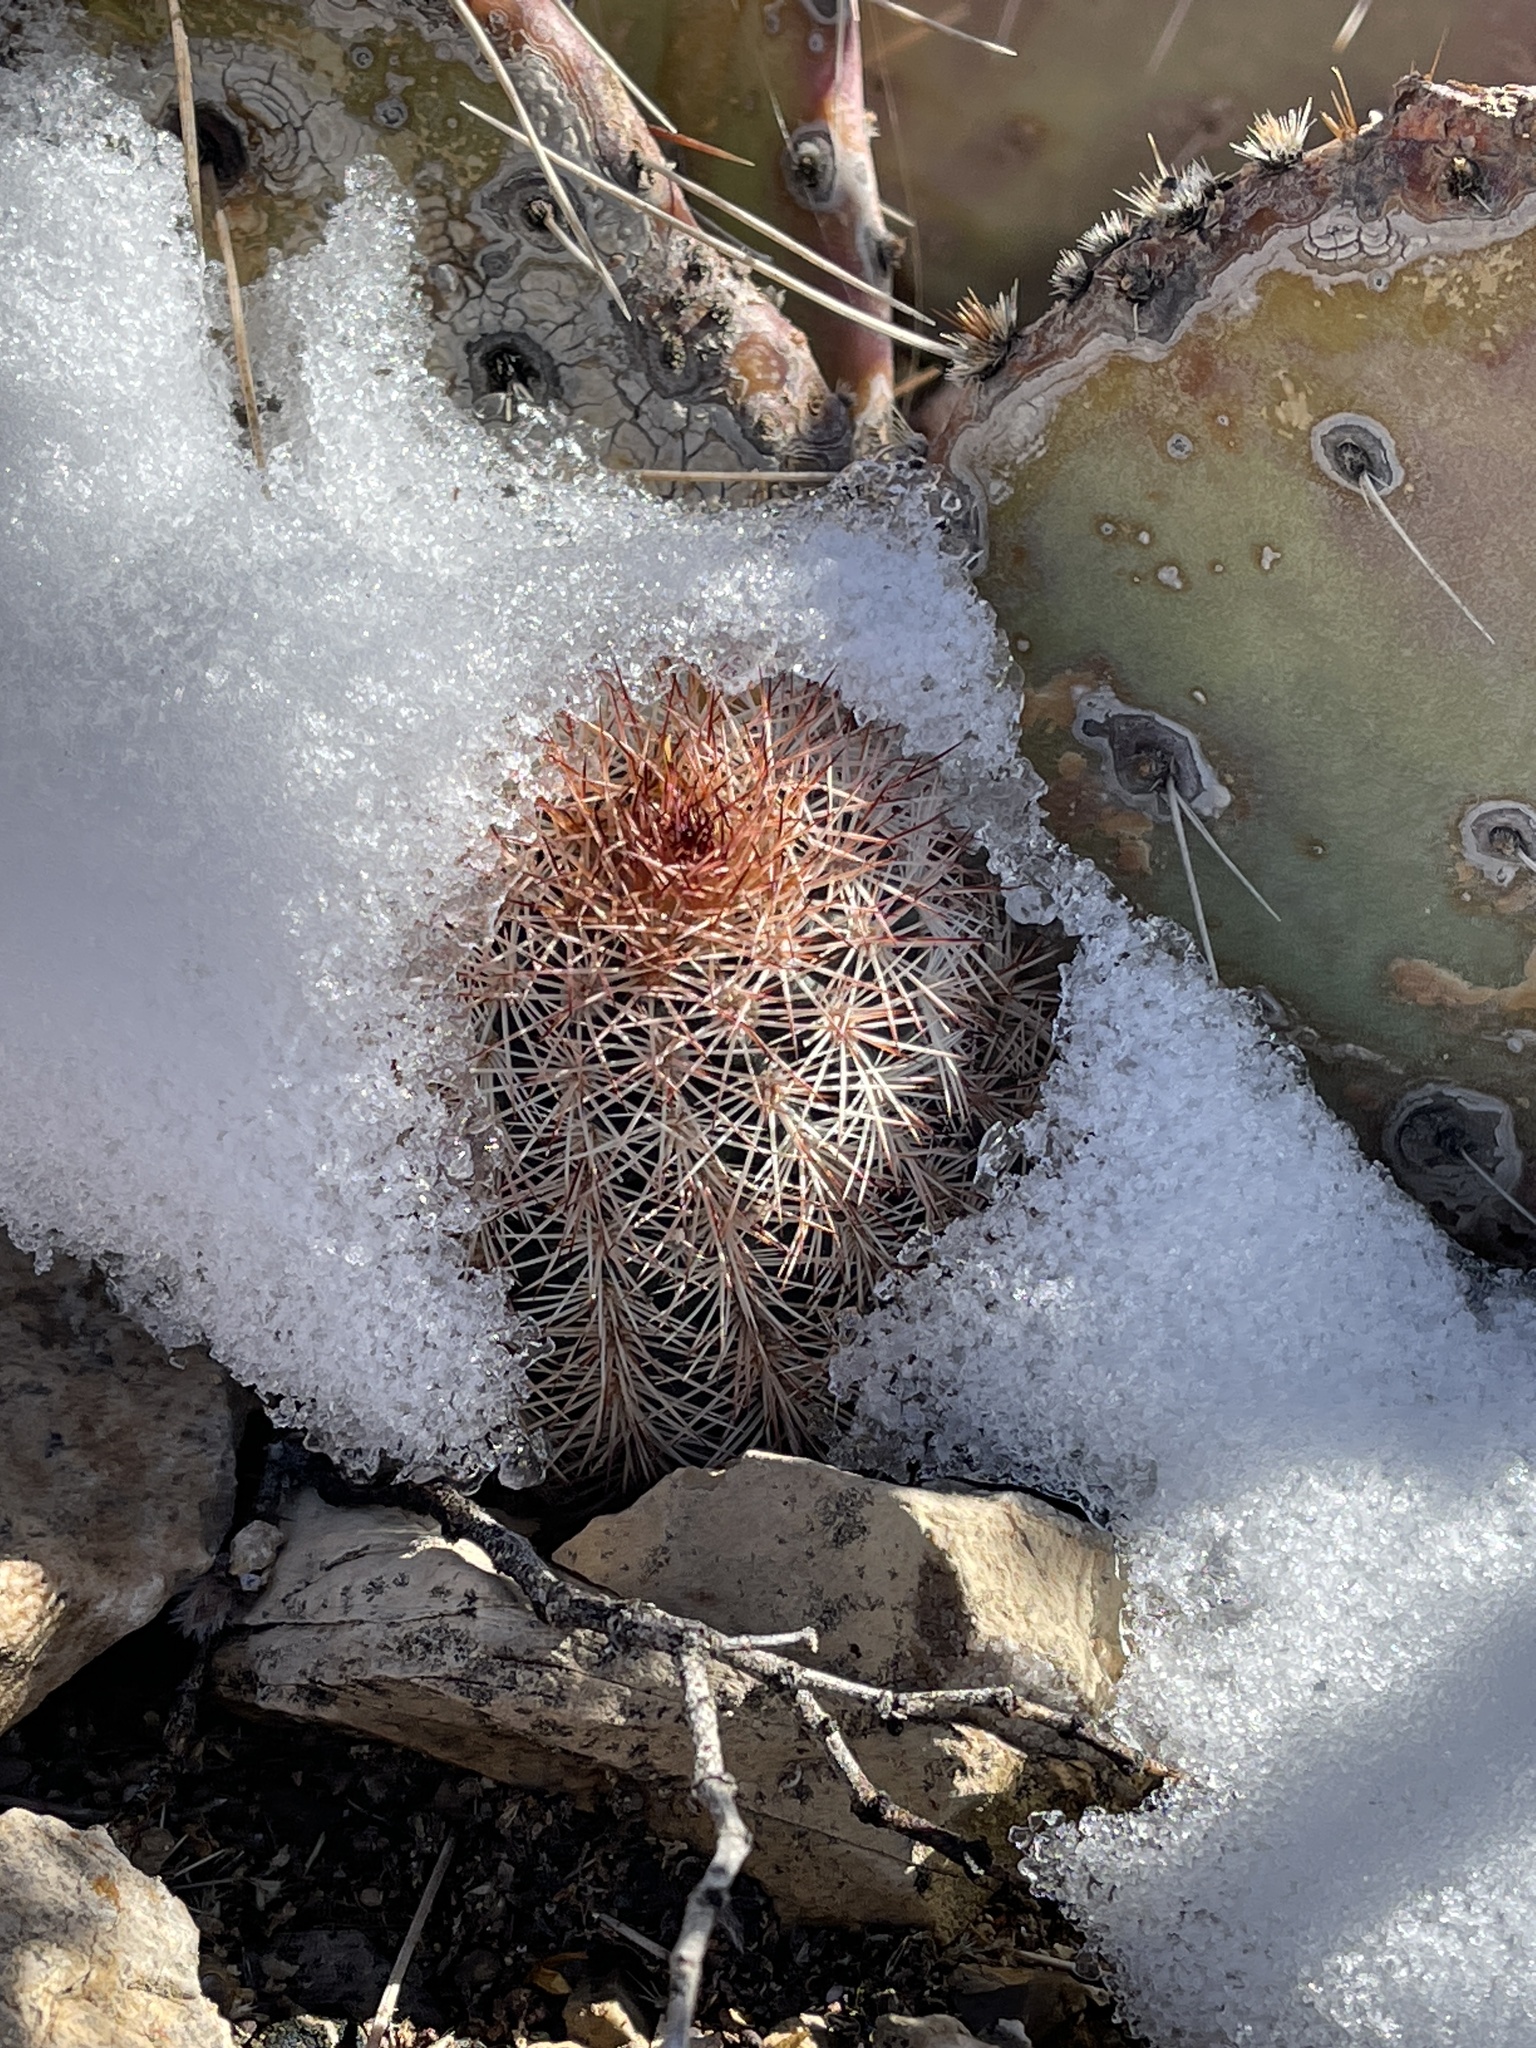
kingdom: Plantae
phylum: Tracheophyta
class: Magnoliopsida
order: Caryophyllales
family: Cactaceae
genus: Echinocereus
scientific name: Echinocereus dasyacanthus
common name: Spiny hedgehog cactus
